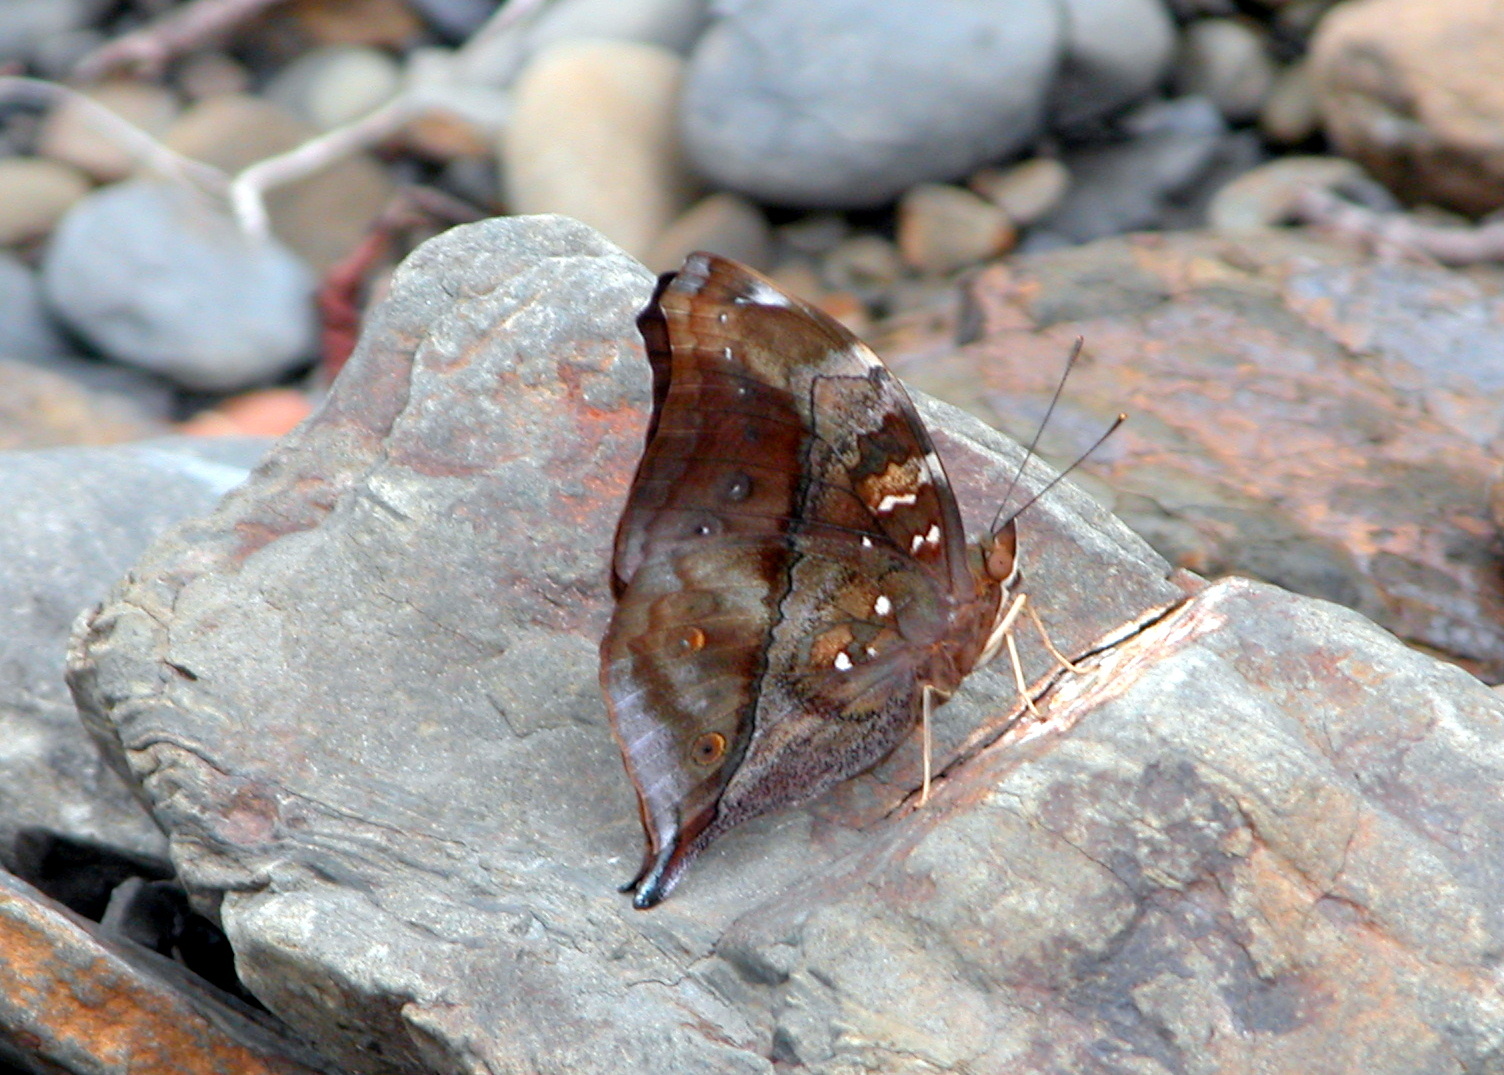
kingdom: Animalia
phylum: Arthropoda
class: Insecta
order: Lepidoptera
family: Nymphalidae
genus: Doleschallia
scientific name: Doleschallia bisaltide
